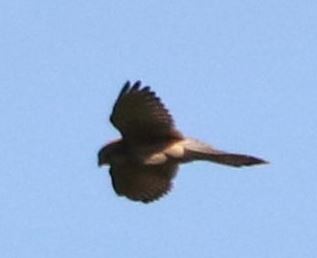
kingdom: Animalia
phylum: Chordata
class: Aves
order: Falconiformes
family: Falconidae
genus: Falco
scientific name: Falco tinnunculus
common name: Common kestrel
